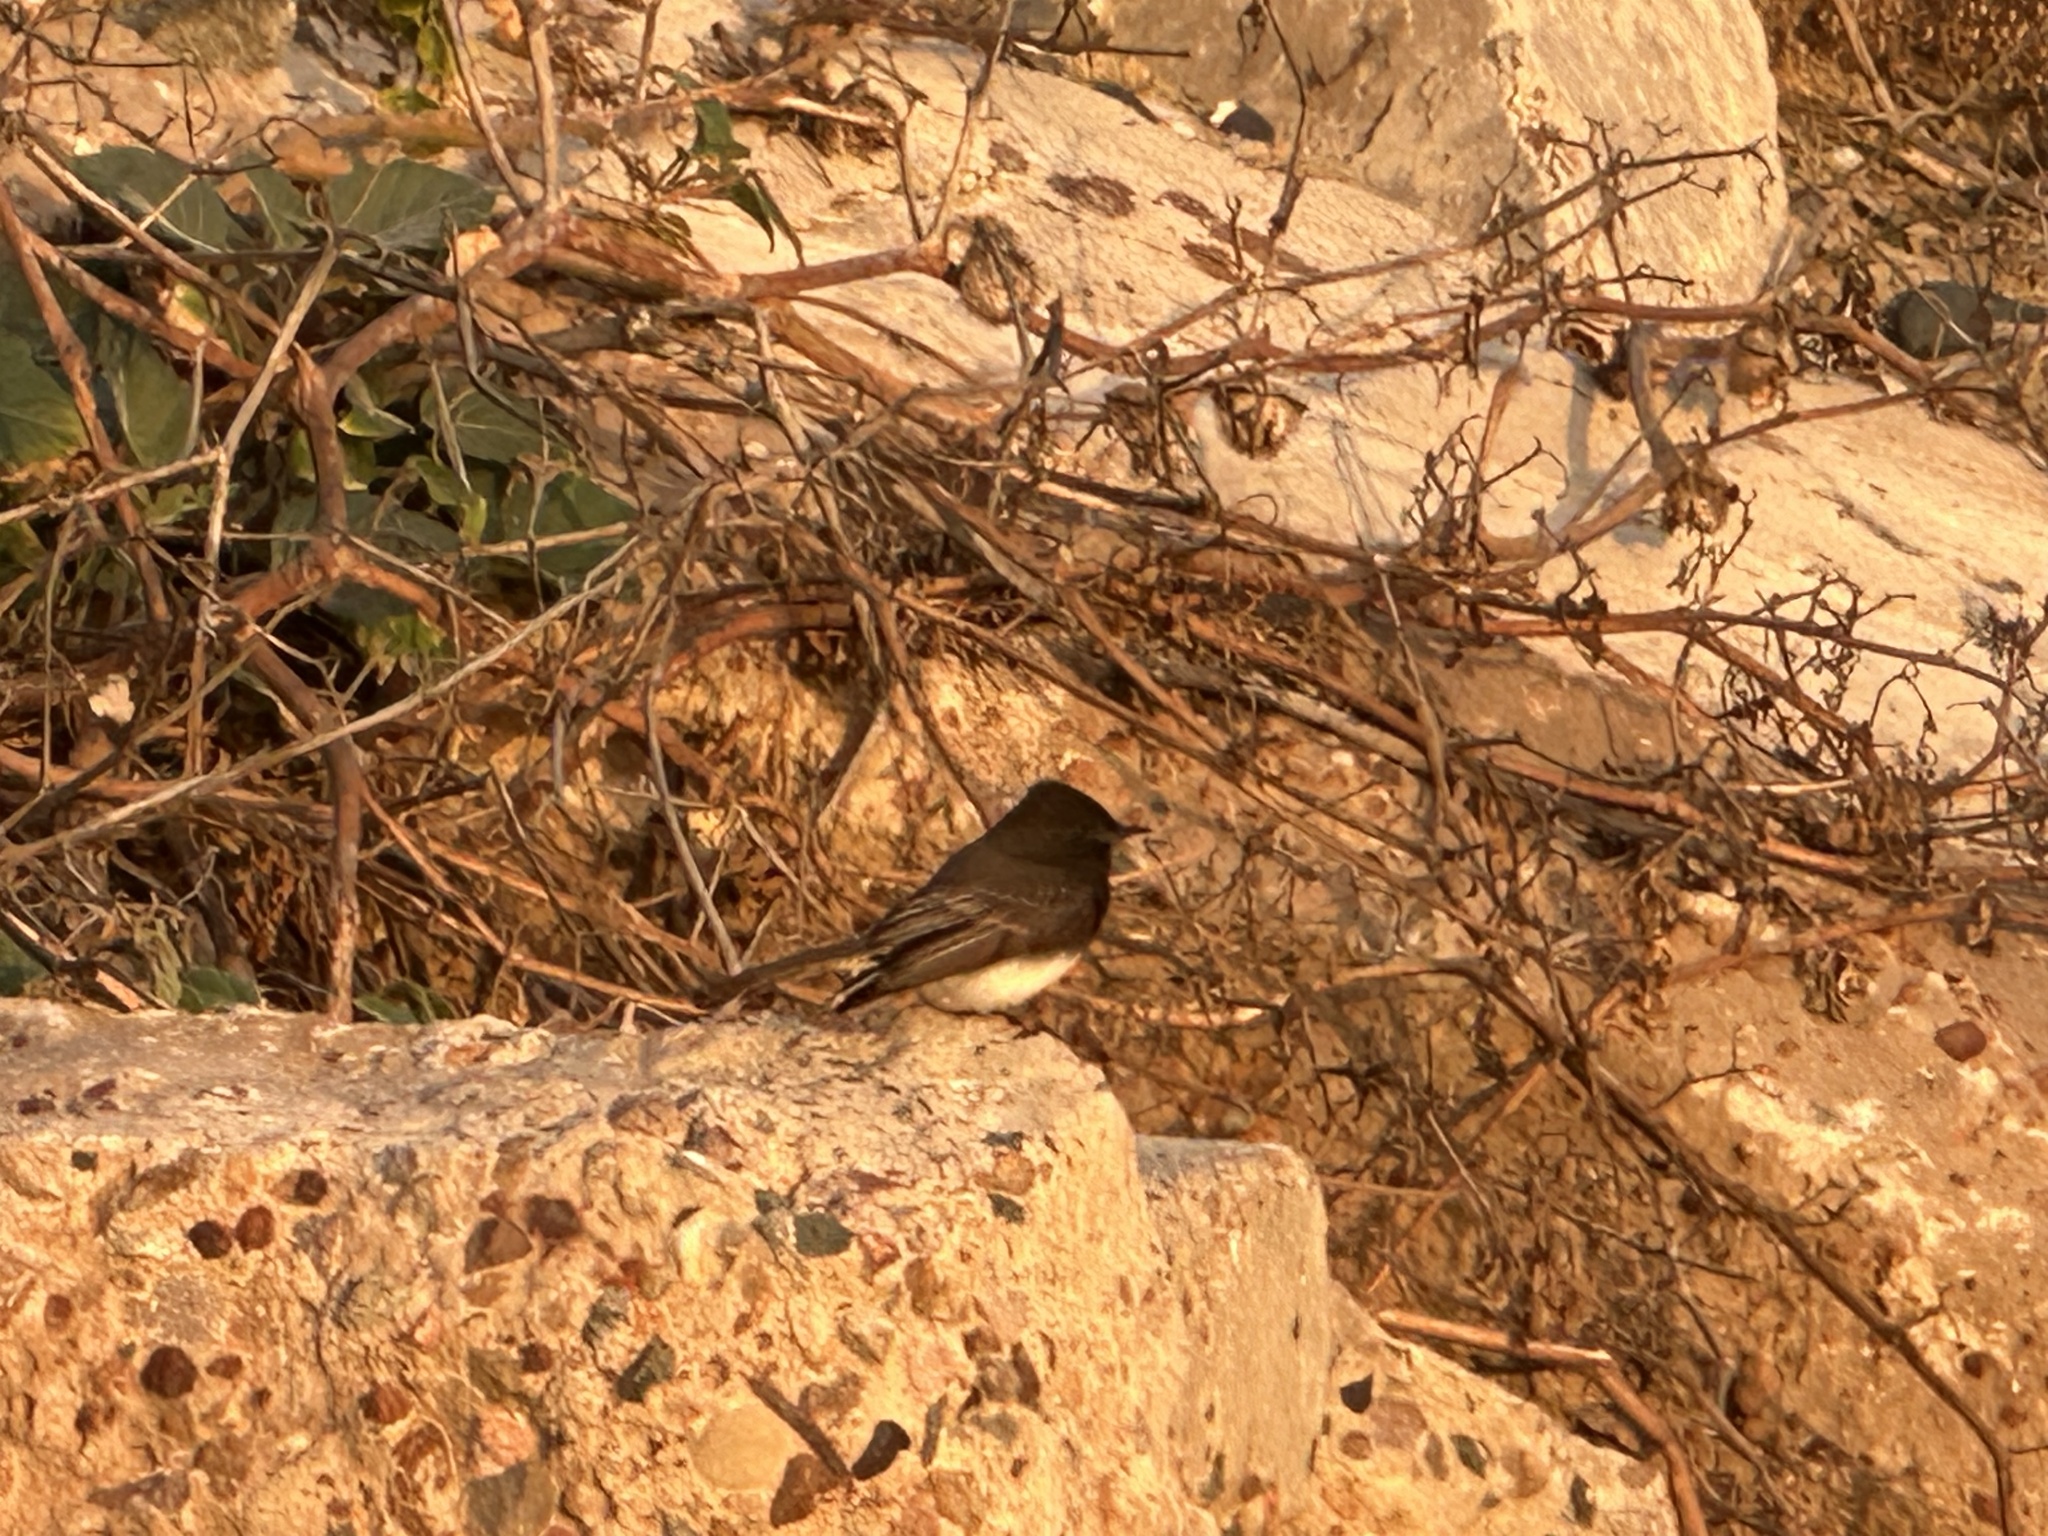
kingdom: Animalia
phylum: Chordata
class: Aves
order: Passeriformes
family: Tyrannidae
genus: Sayornis
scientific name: Sayornis nigricans
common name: Black phoebe
